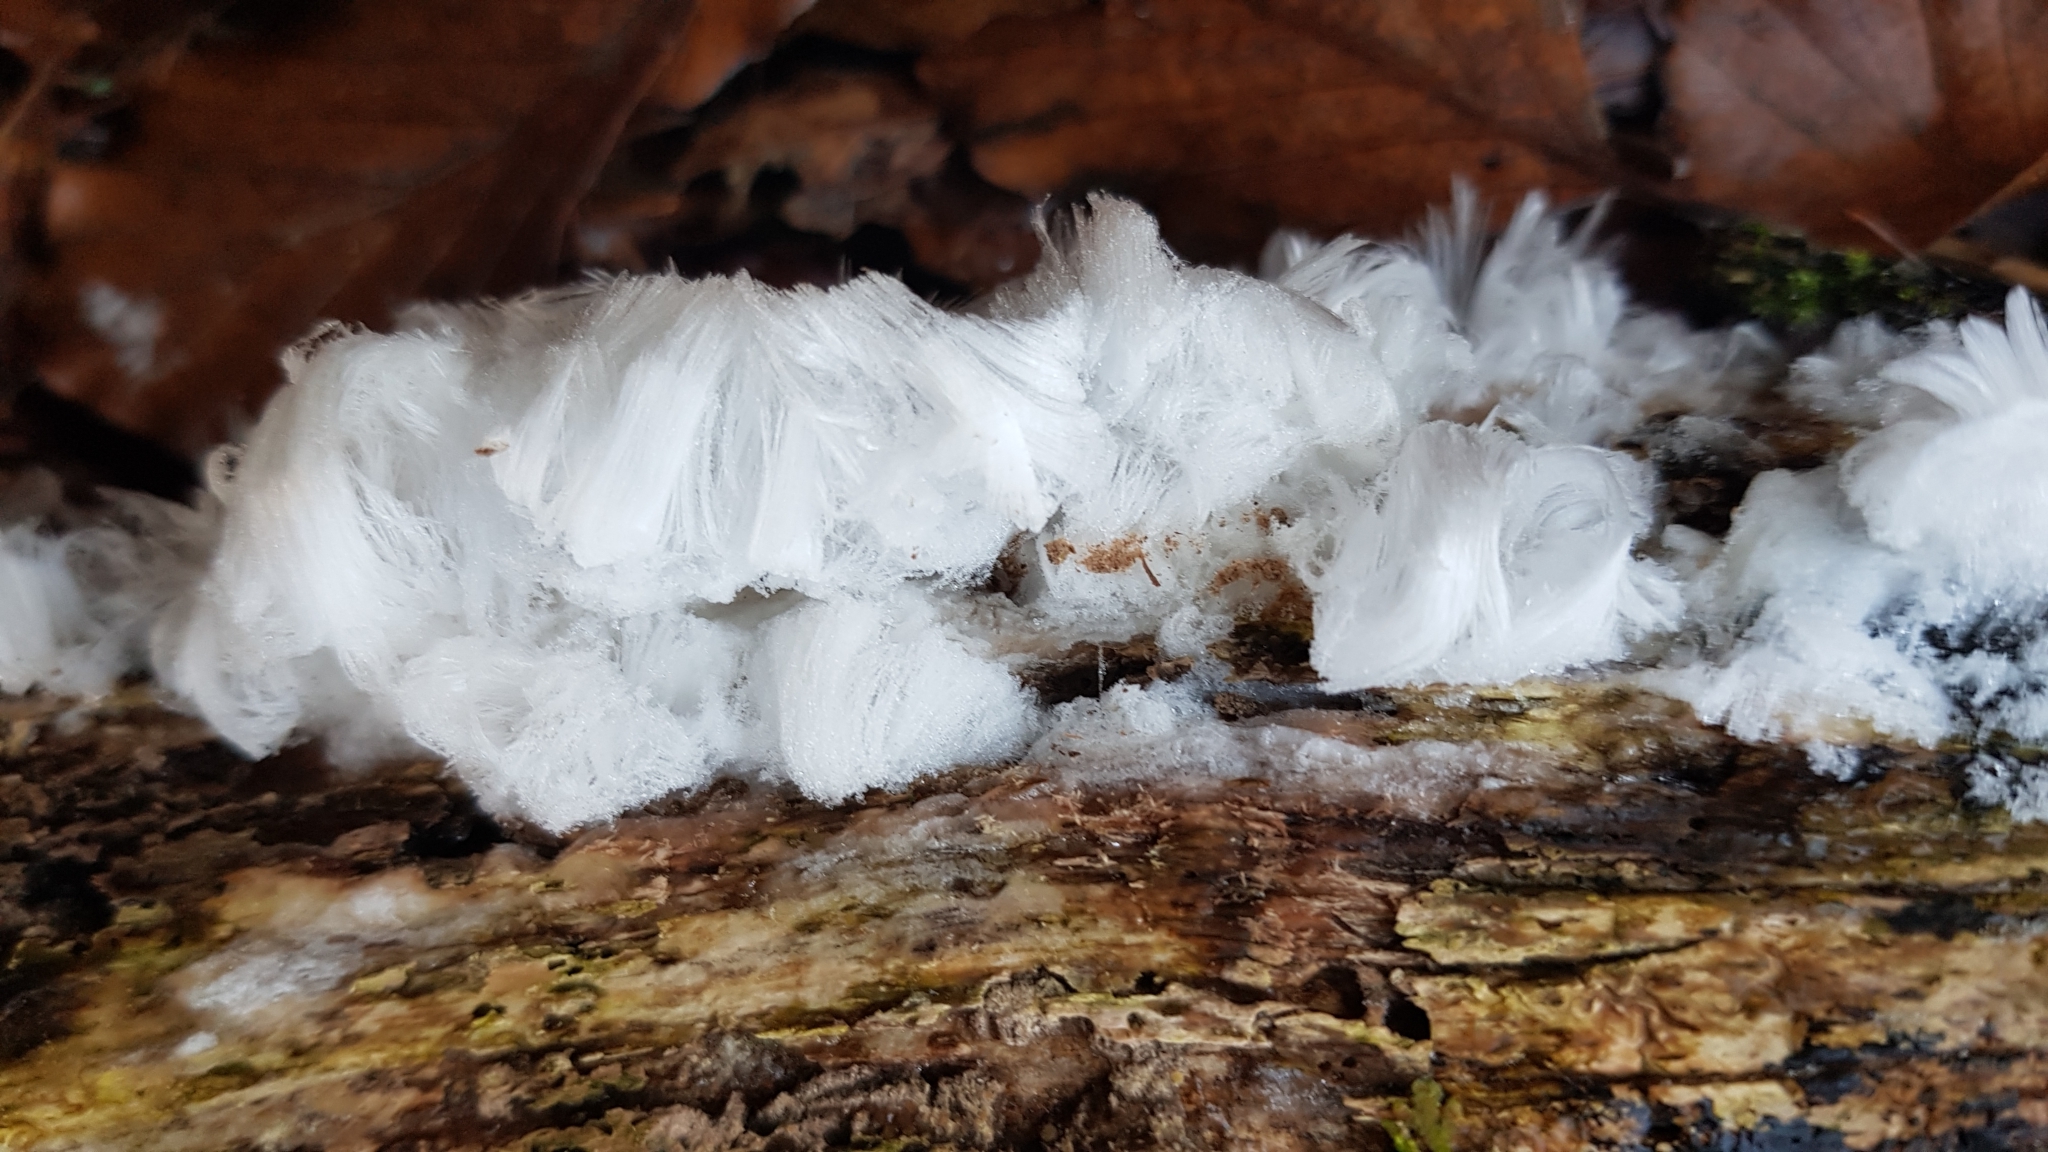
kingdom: Fungi
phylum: Basidiomycota
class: Agaricomycetes
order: Auriculariales
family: Auriculariaceae
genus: Exidiopsis
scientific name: Exidiopsis effusa
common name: Hair ice crust
